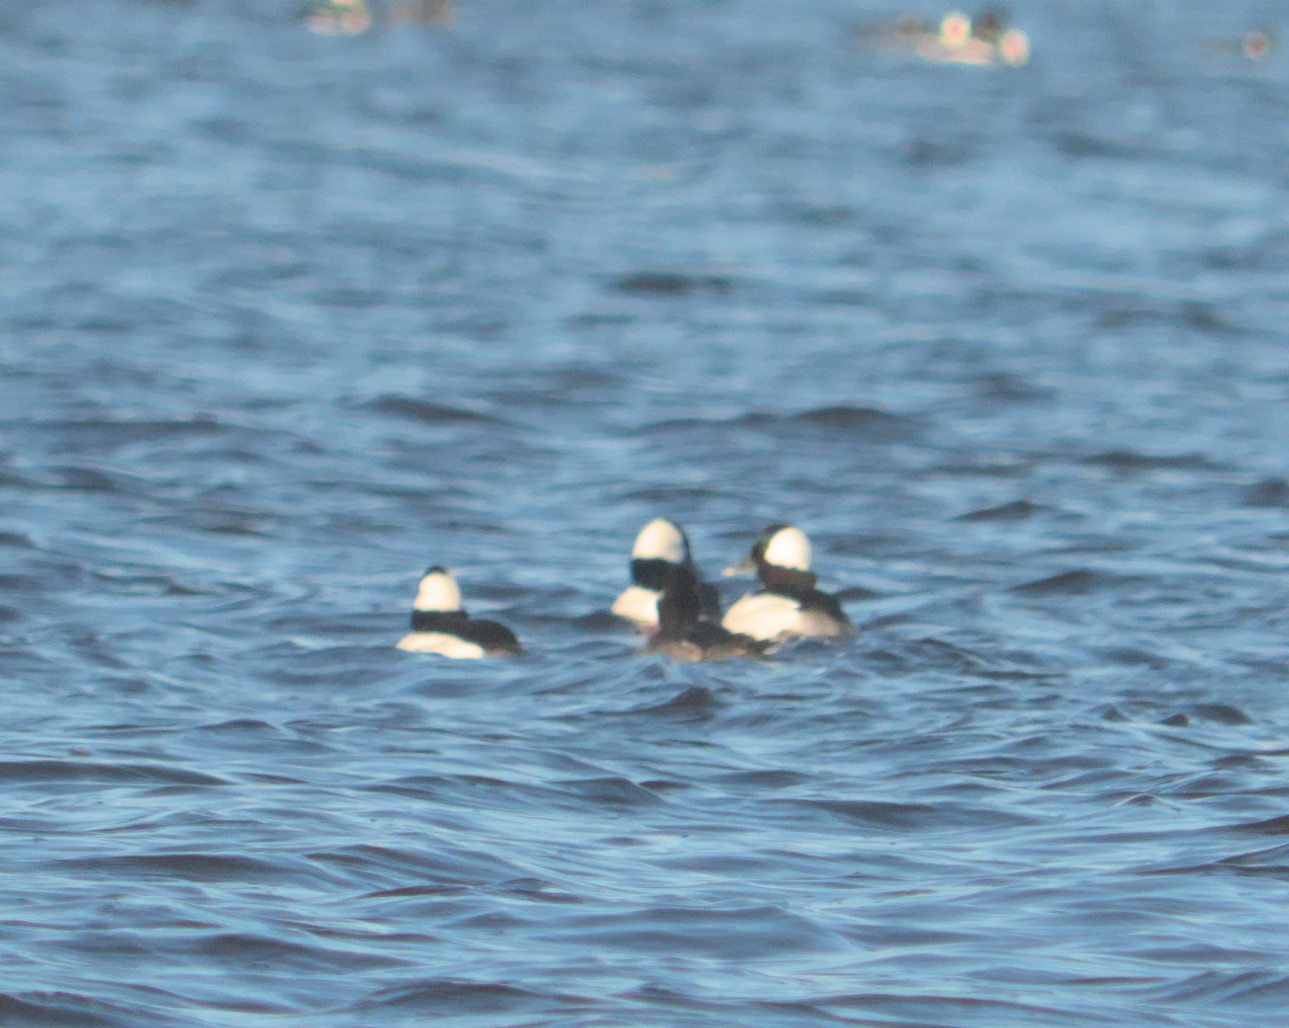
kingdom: Animalia
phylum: Chordata
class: Aves
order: Anseriformes
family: Anatidae
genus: Bucephala
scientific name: Bucephala albeola
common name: Bufflehead
